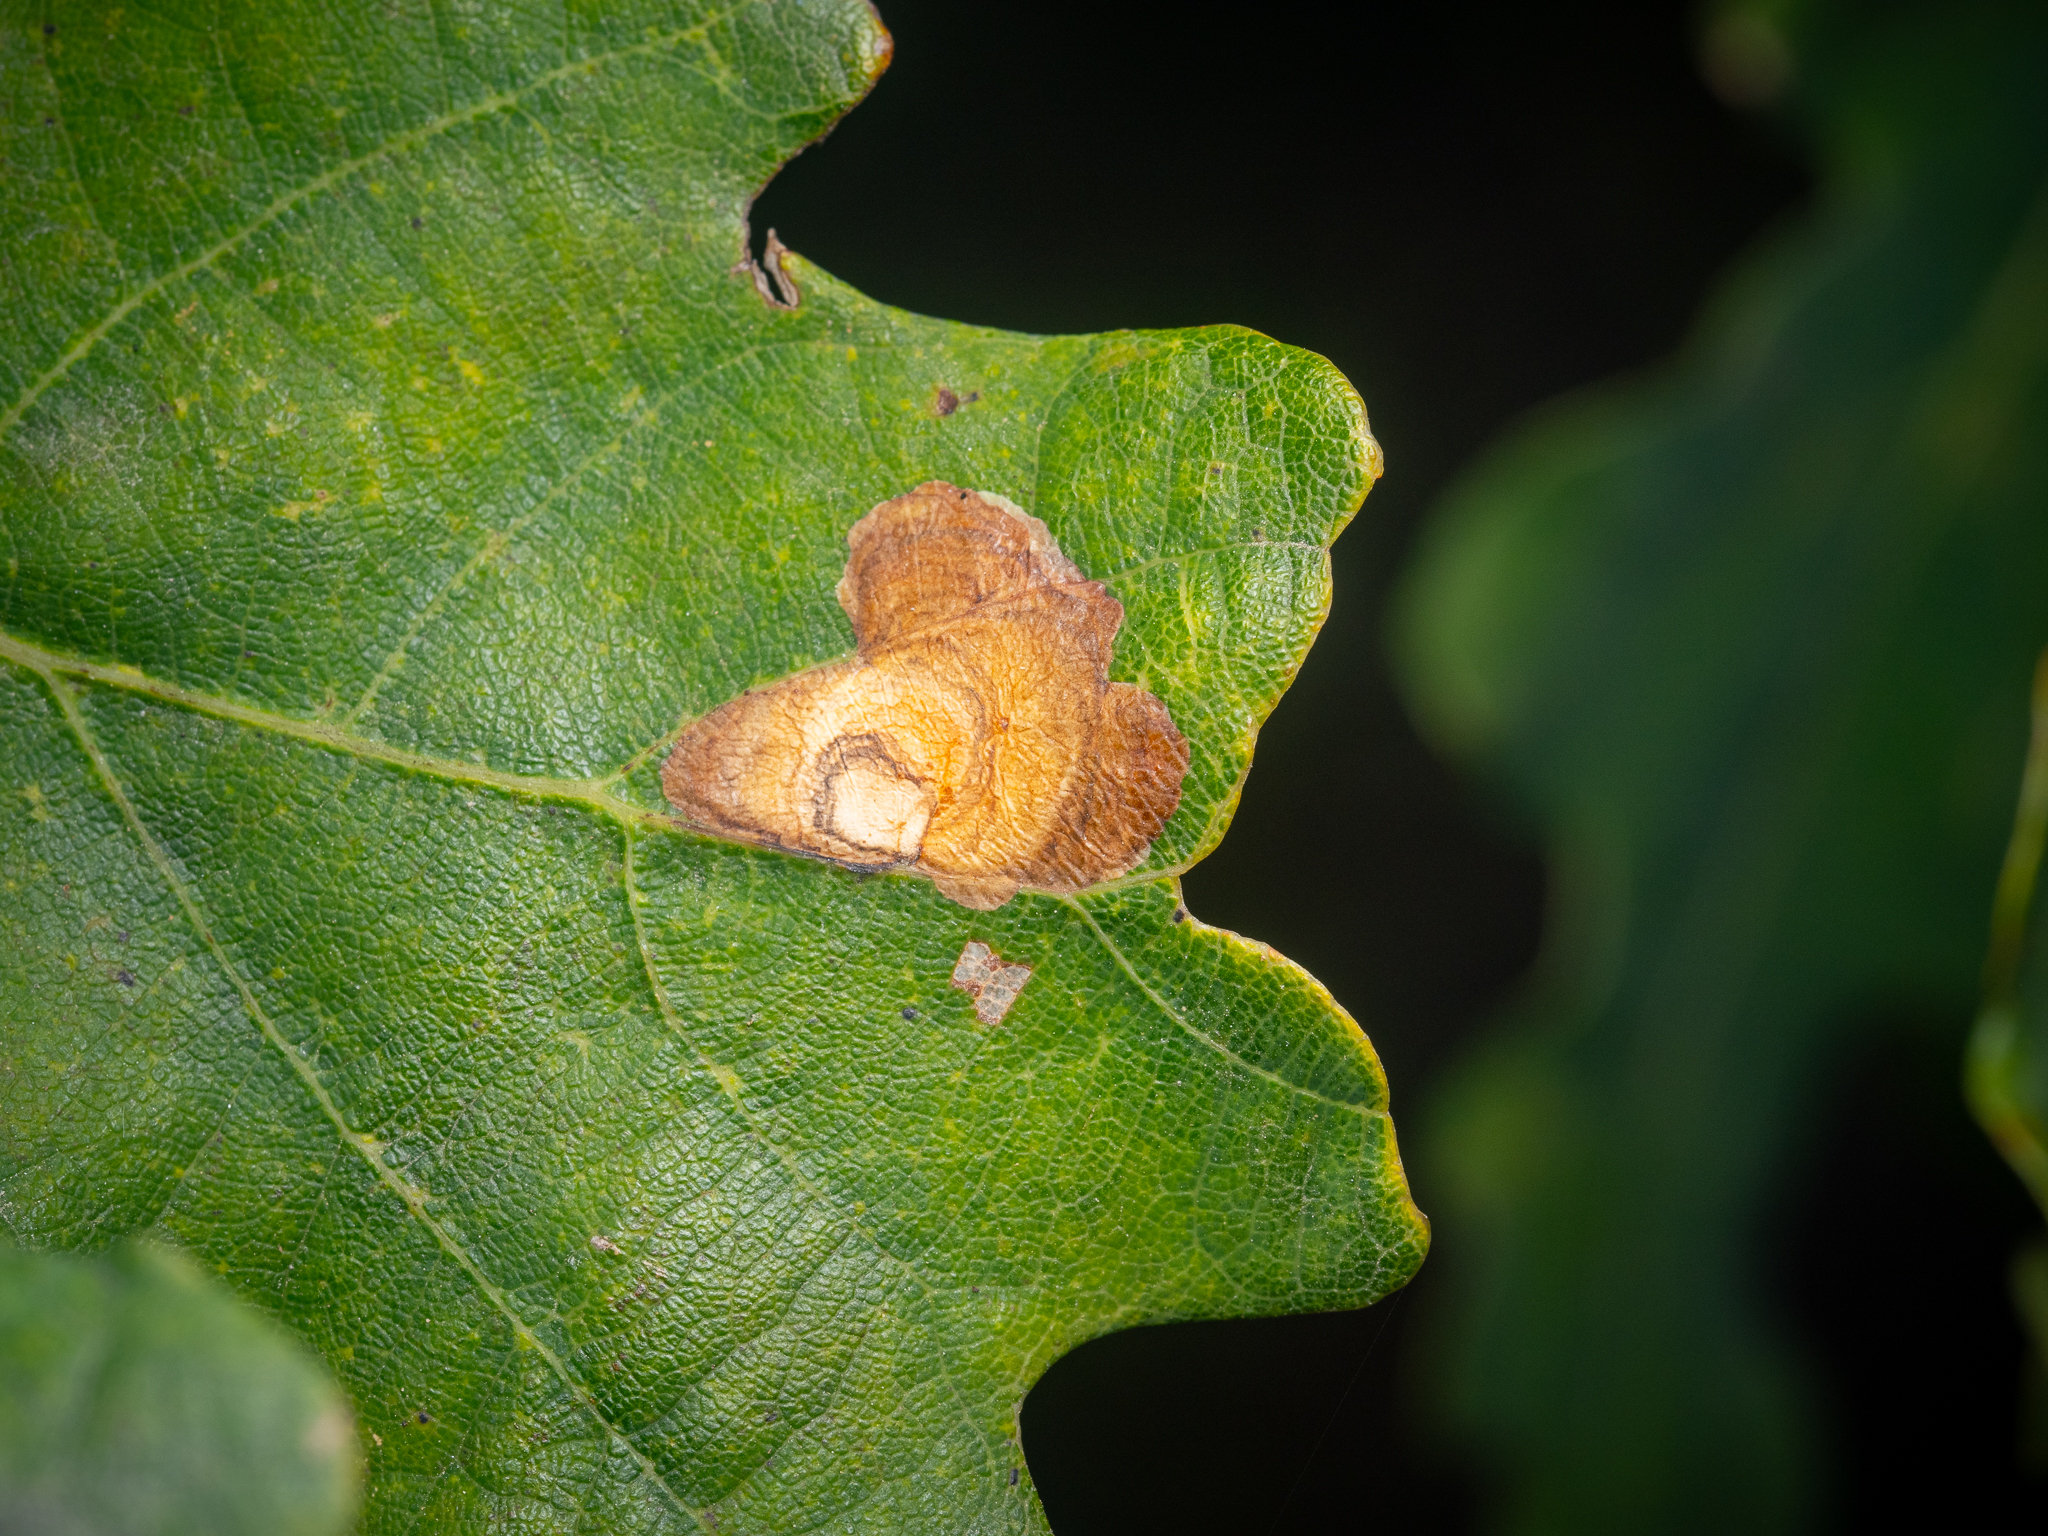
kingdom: Animalia
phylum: Arthropoda
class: Insecta
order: Lepidoptera
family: Tischeriidae
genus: Tischeria
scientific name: Tischeria dodonaea
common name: Small carl
